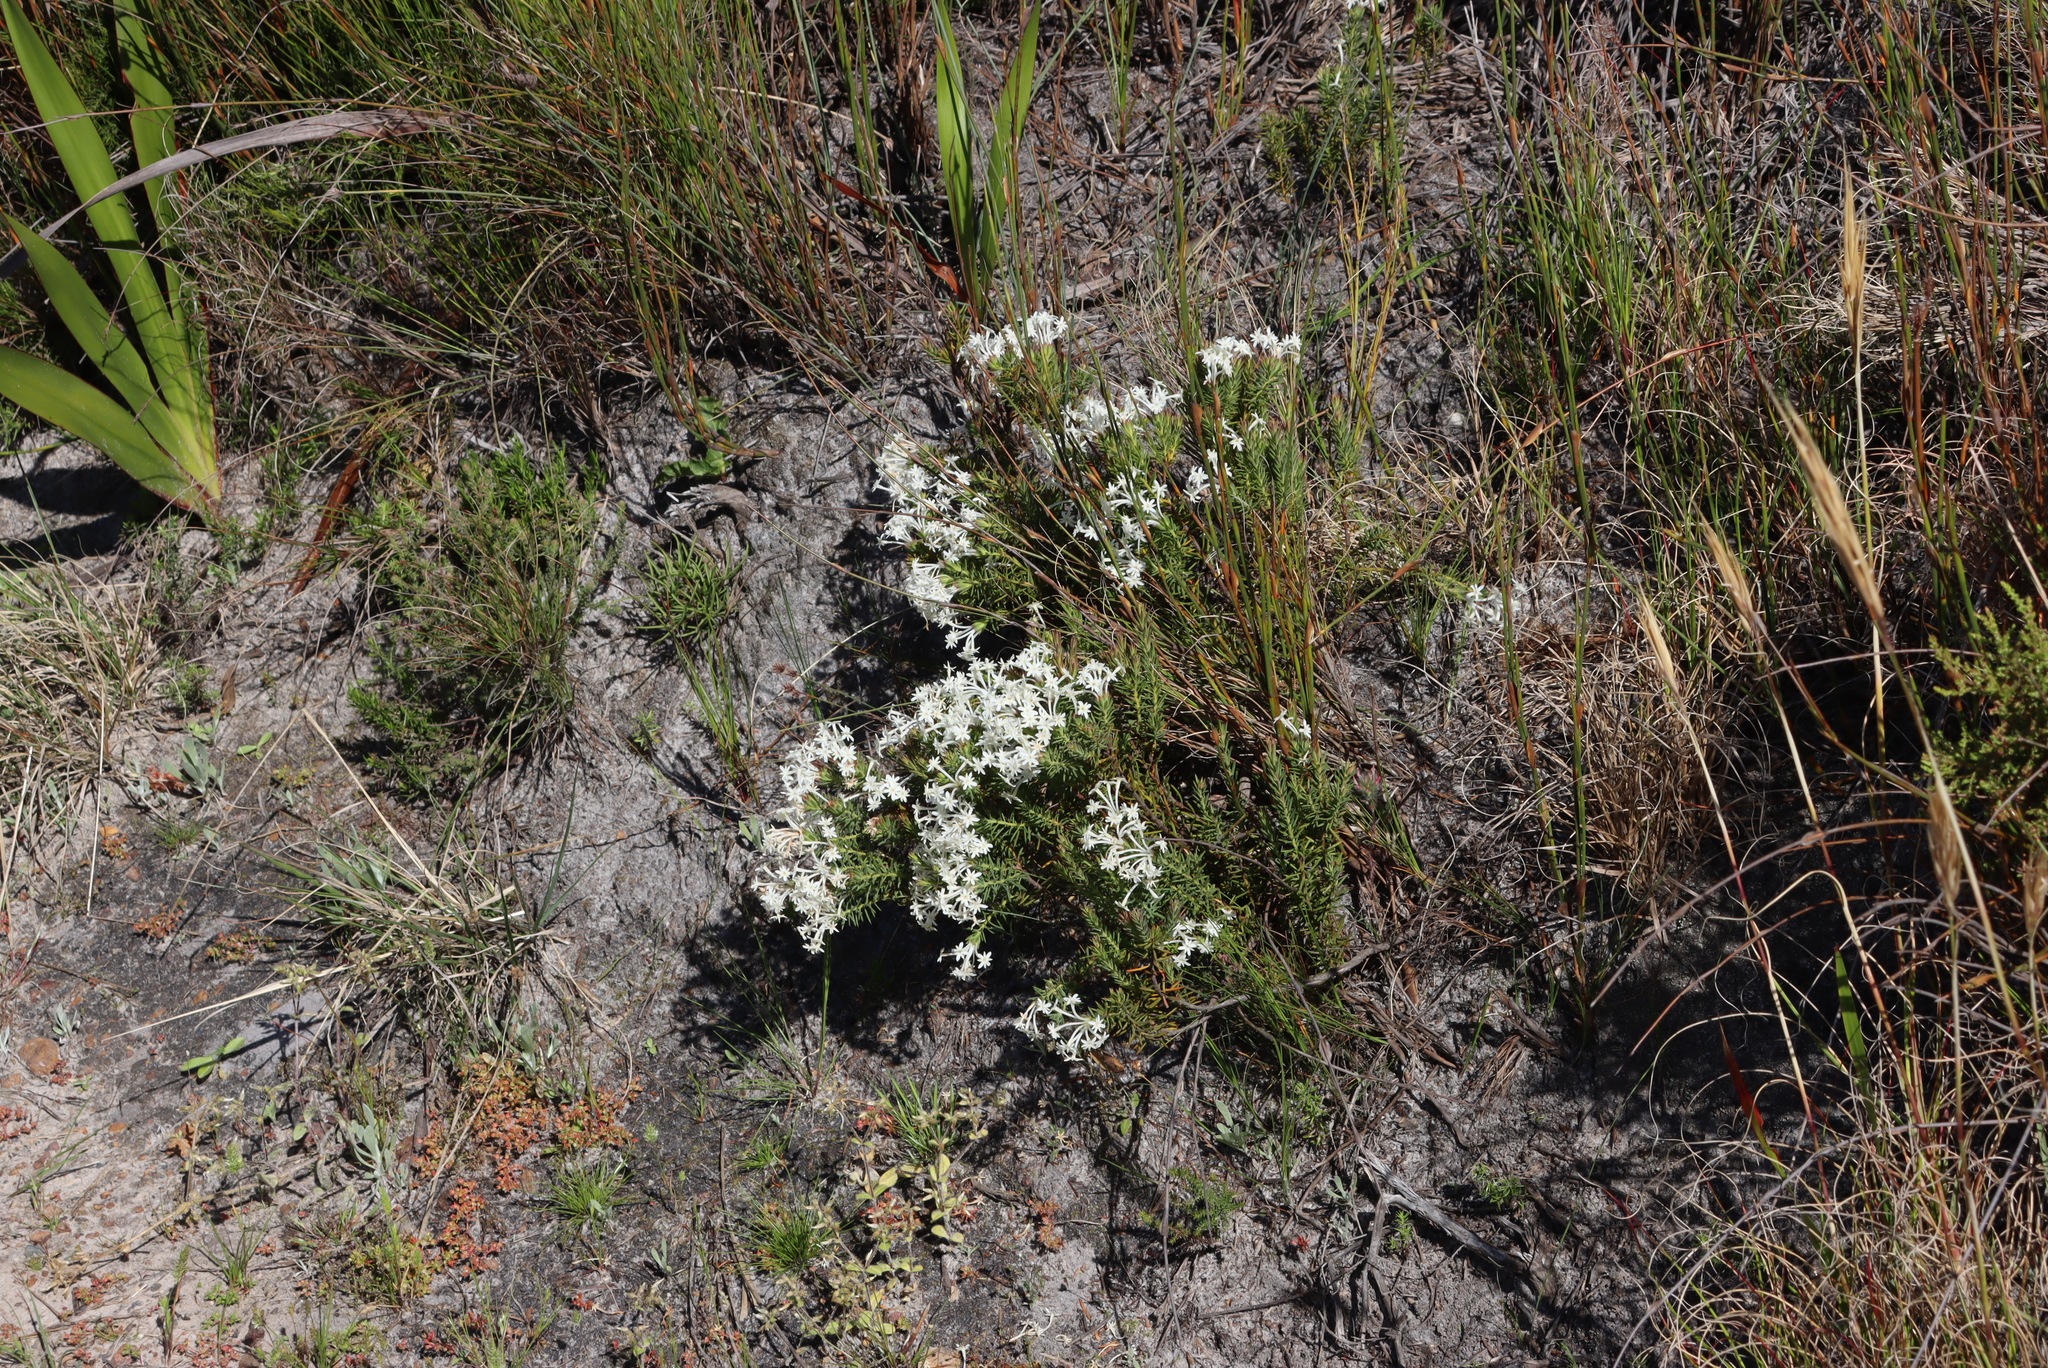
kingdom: Plantae
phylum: Tracheophyta
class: Magnoliopsida
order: Malvales
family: Thymelaeaceae
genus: Gnidia
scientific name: Gnidia pinifolia
